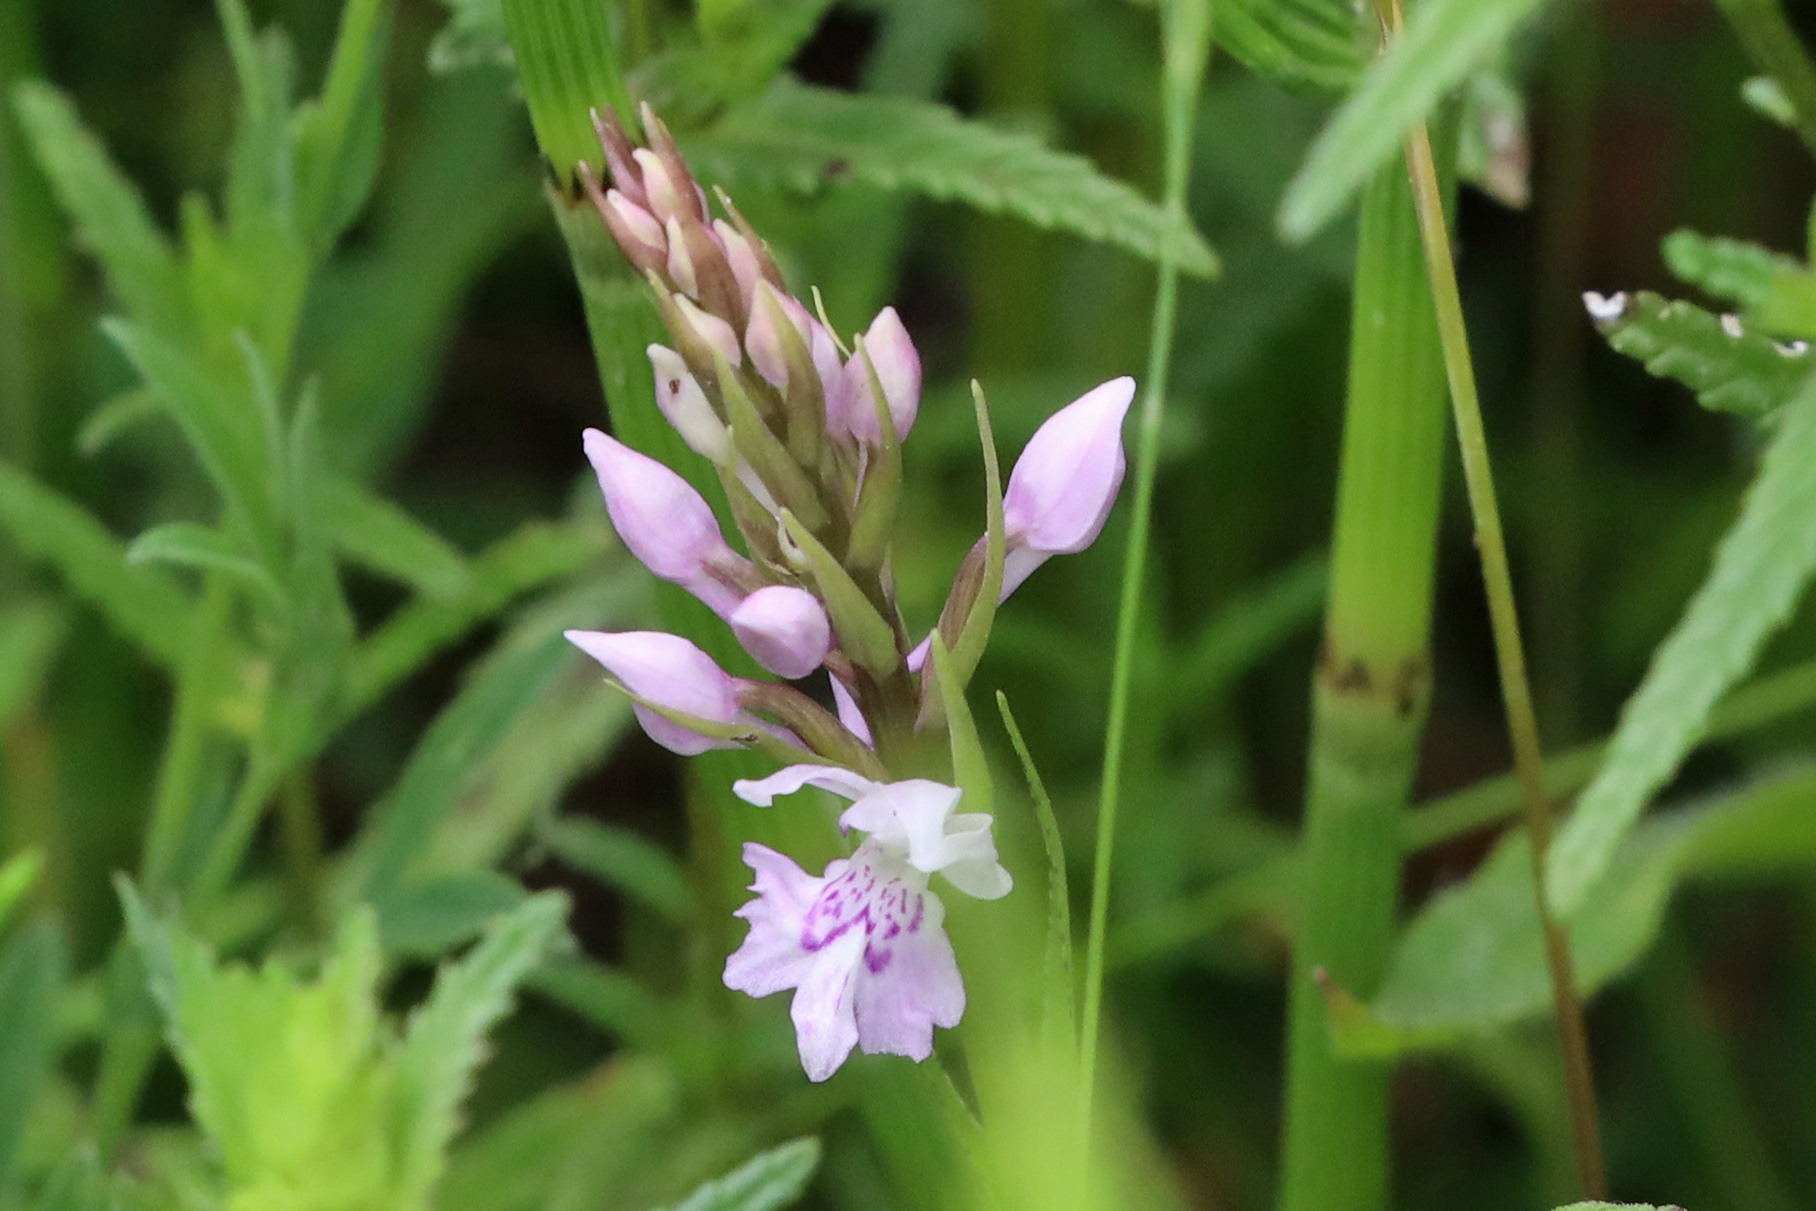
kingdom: Plantae
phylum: Tracheophyta
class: Liliopsida
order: Asparagales
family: Orchidaceae
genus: Dactylorhiza
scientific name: Dactylorhiza maculata
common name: Heath spotted-orchid
